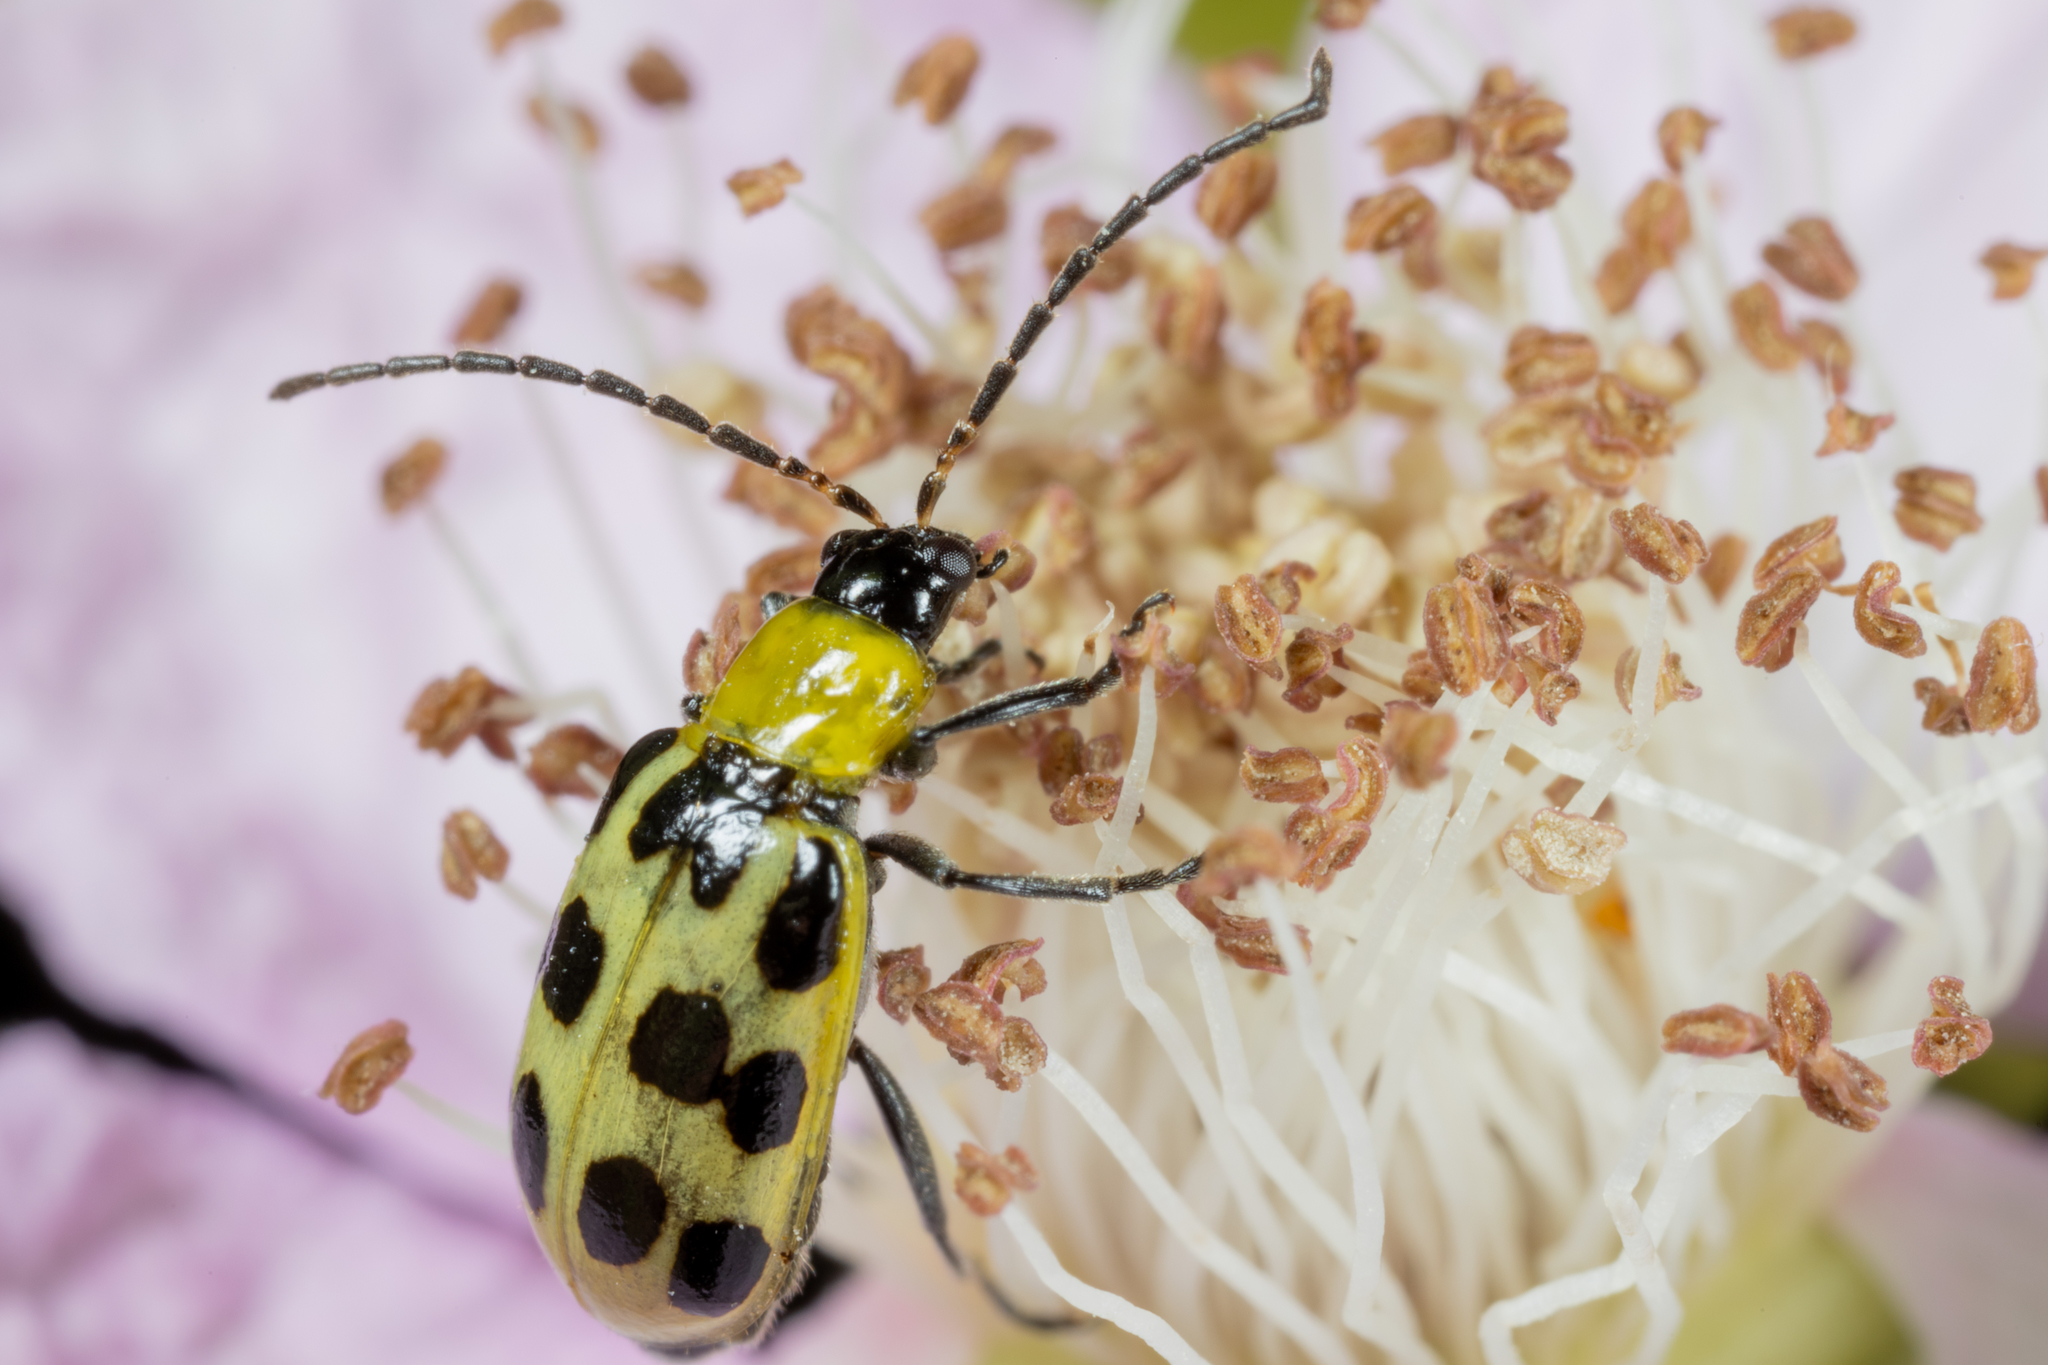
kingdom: Animalia
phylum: Arthropoda
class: Insecta
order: Coleoptera
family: Chrysomelidae
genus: Diabrotica
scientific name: Diabrotica undecimpunctata
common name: Spotted cucumber beetle
